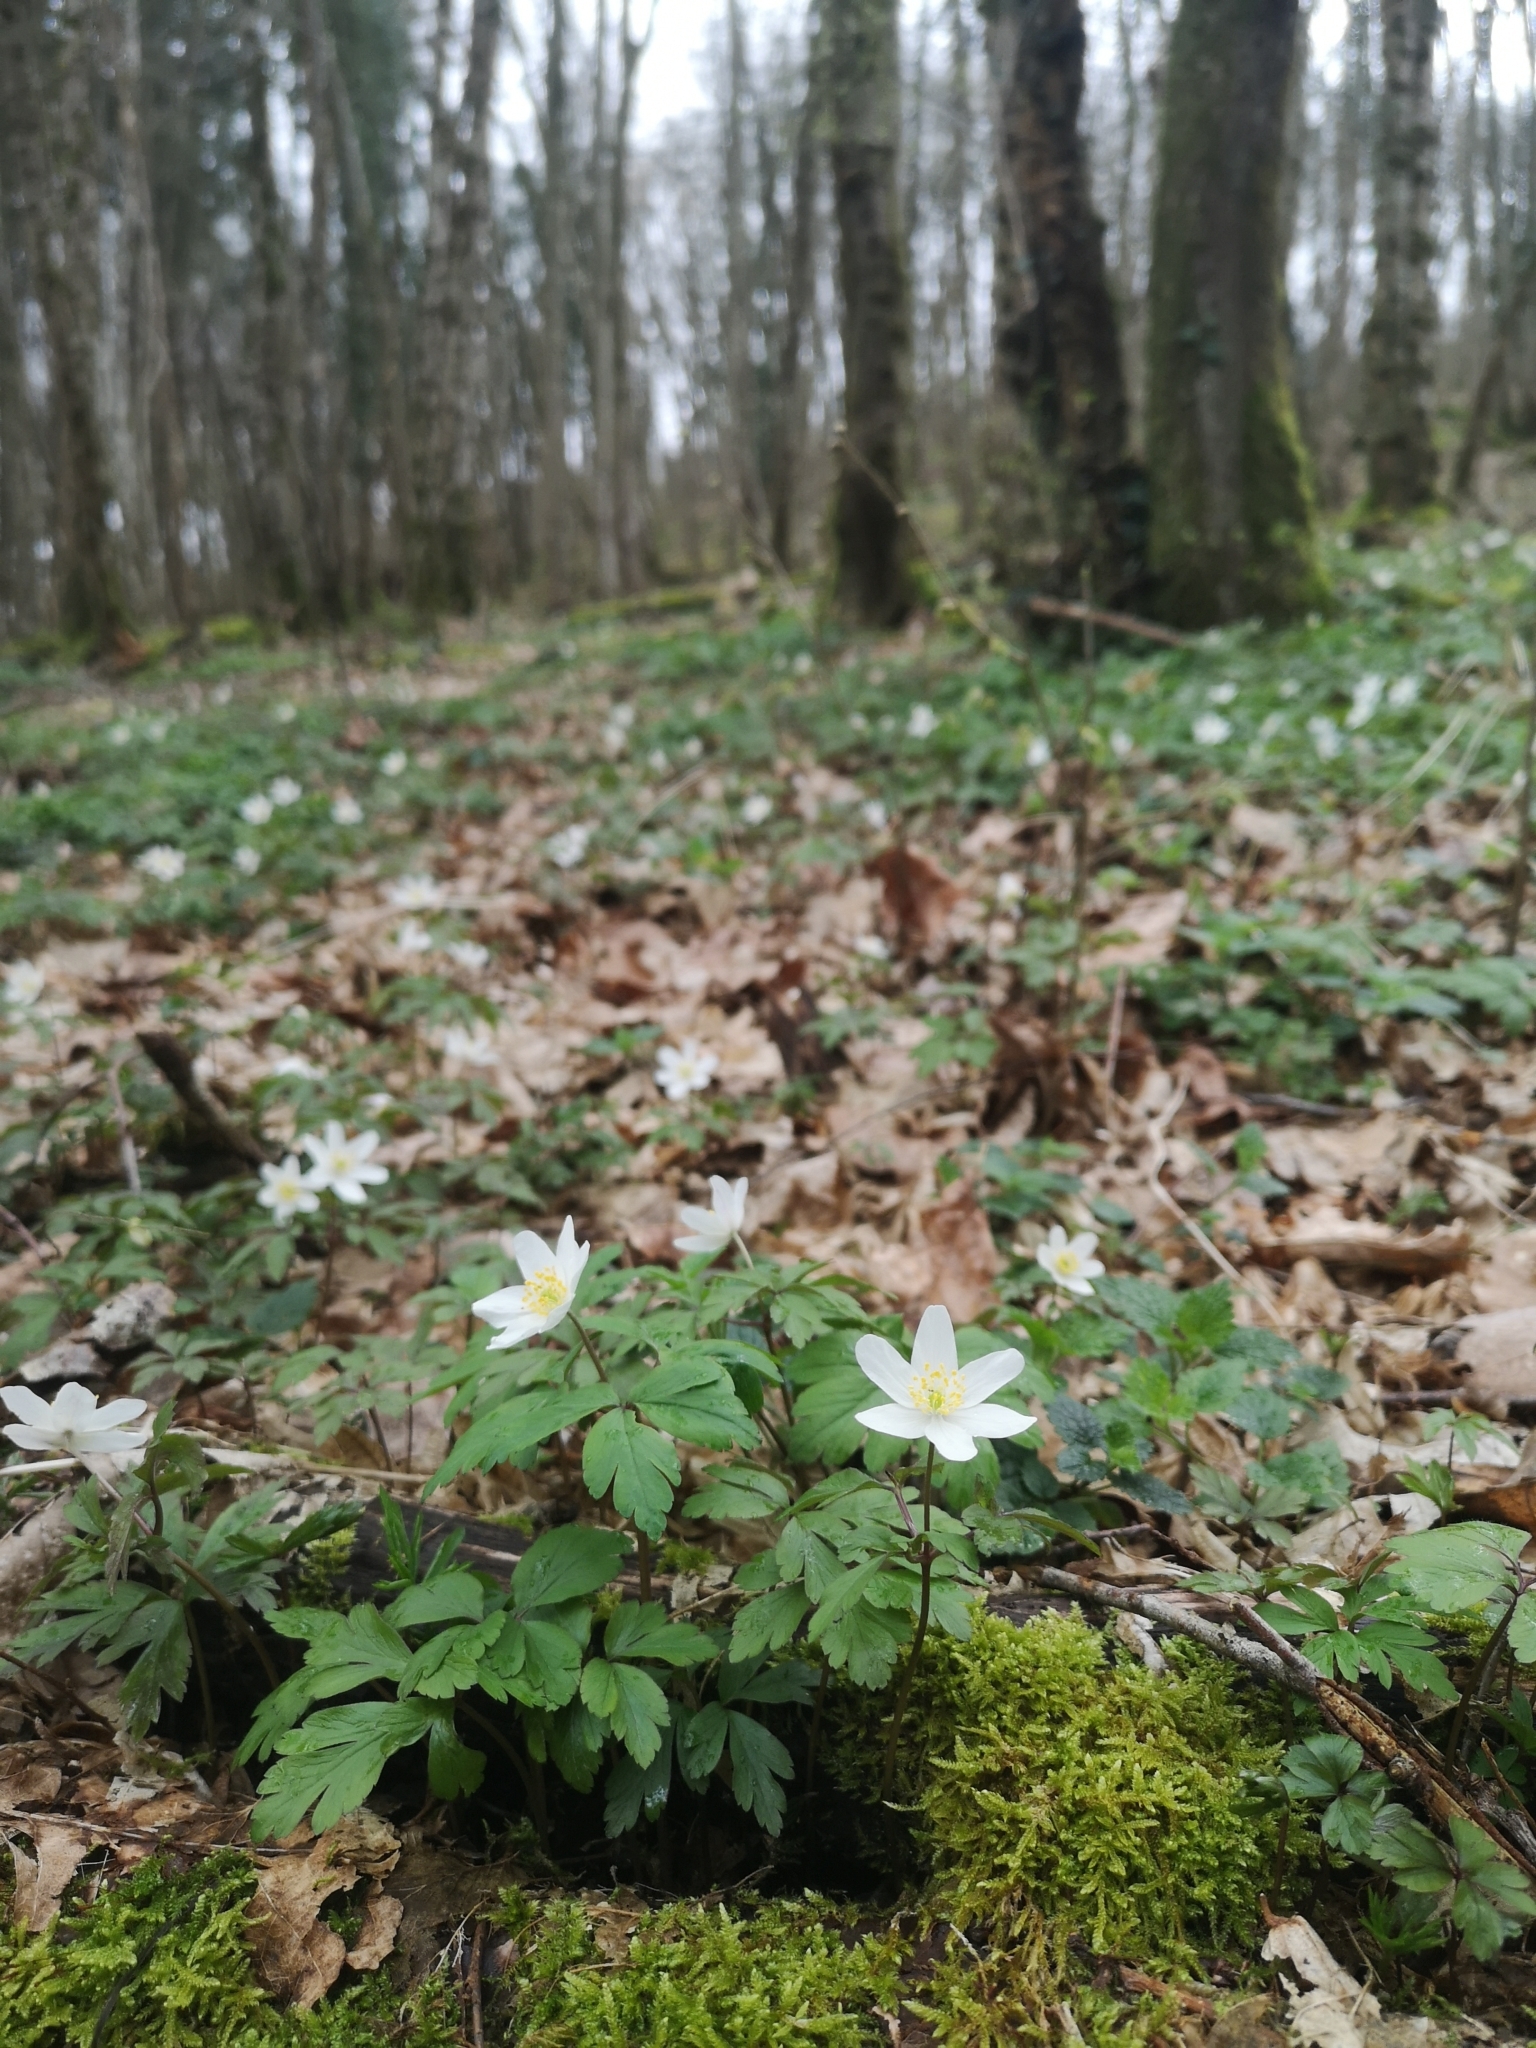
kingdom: Plantae
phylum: Tracheophyta
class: Magnoliopsida
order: Ranunculales
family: Ranunculaceae
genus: Anemone
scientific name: Anemone nemorosa
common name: Wood anemone
